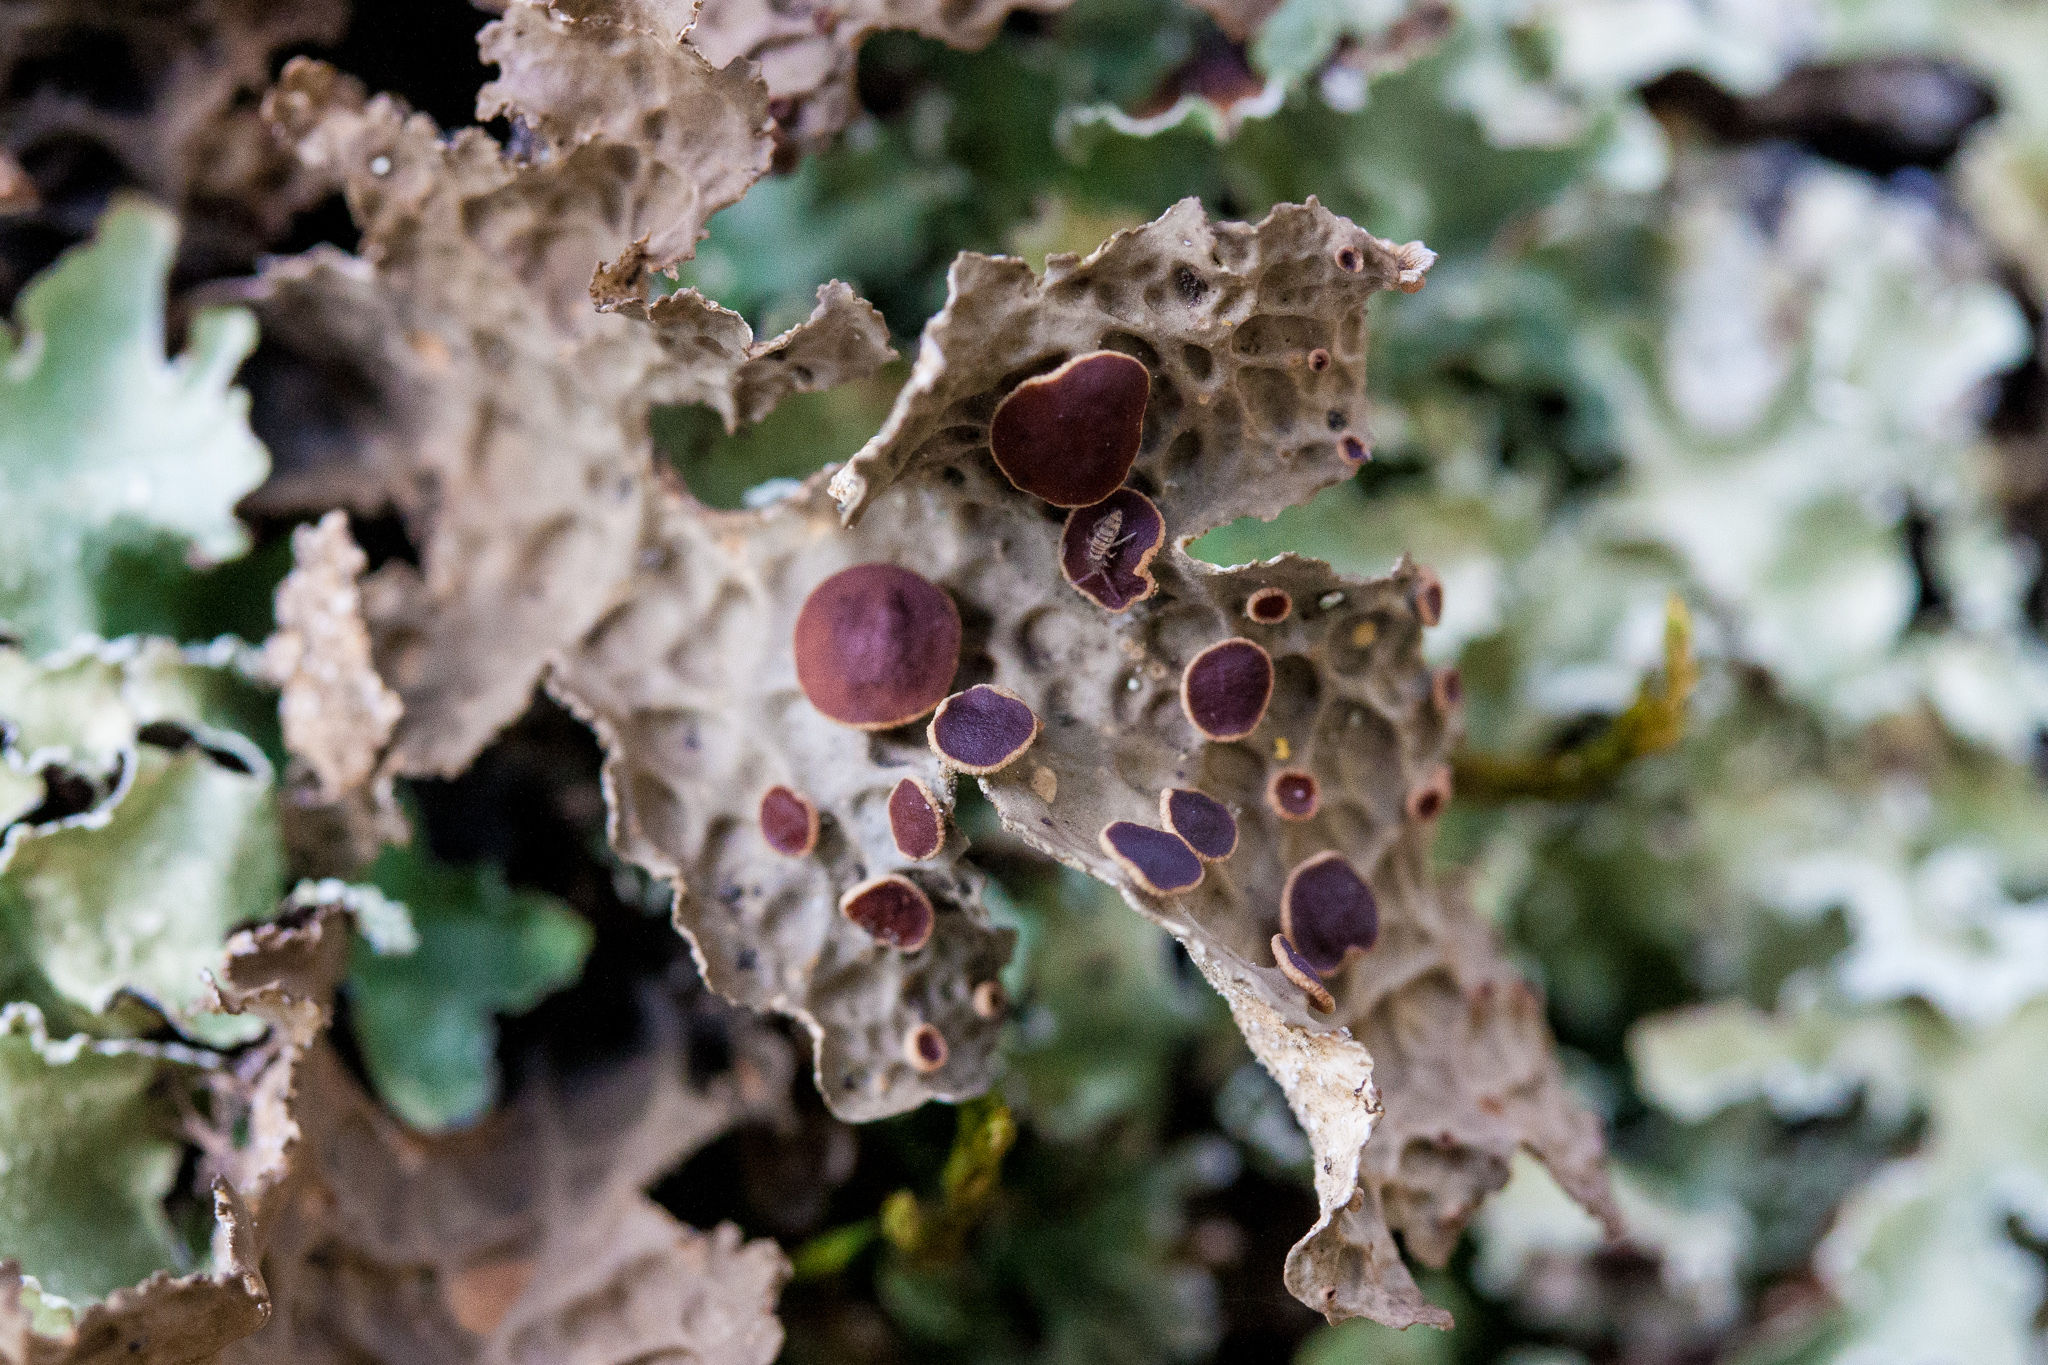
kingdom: Fungi
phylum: Ascomycota
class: Lecanoromycetes
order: Peltigerales
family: Lobariaceae
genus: Lobaria
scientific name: Lobaria anthraspis
